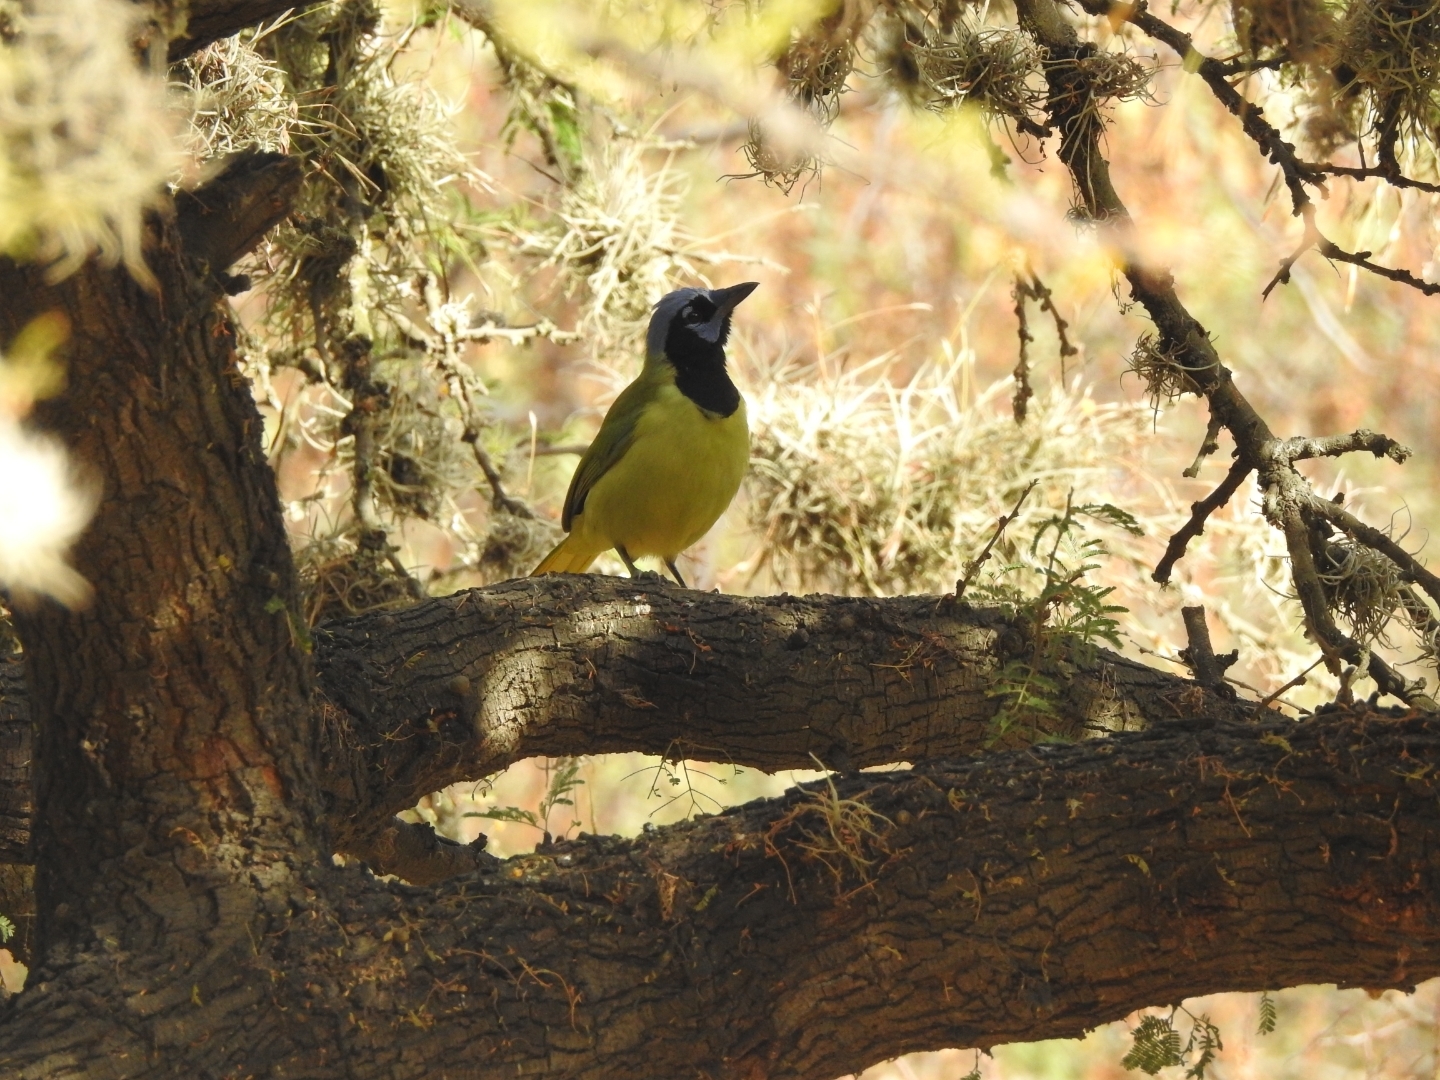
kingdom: Animalia
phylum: Chordata
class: Aves
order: Passeriformes
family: Corvidae
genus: Cyanocorax
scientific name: Cyanocorax yncas
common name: Green jay
